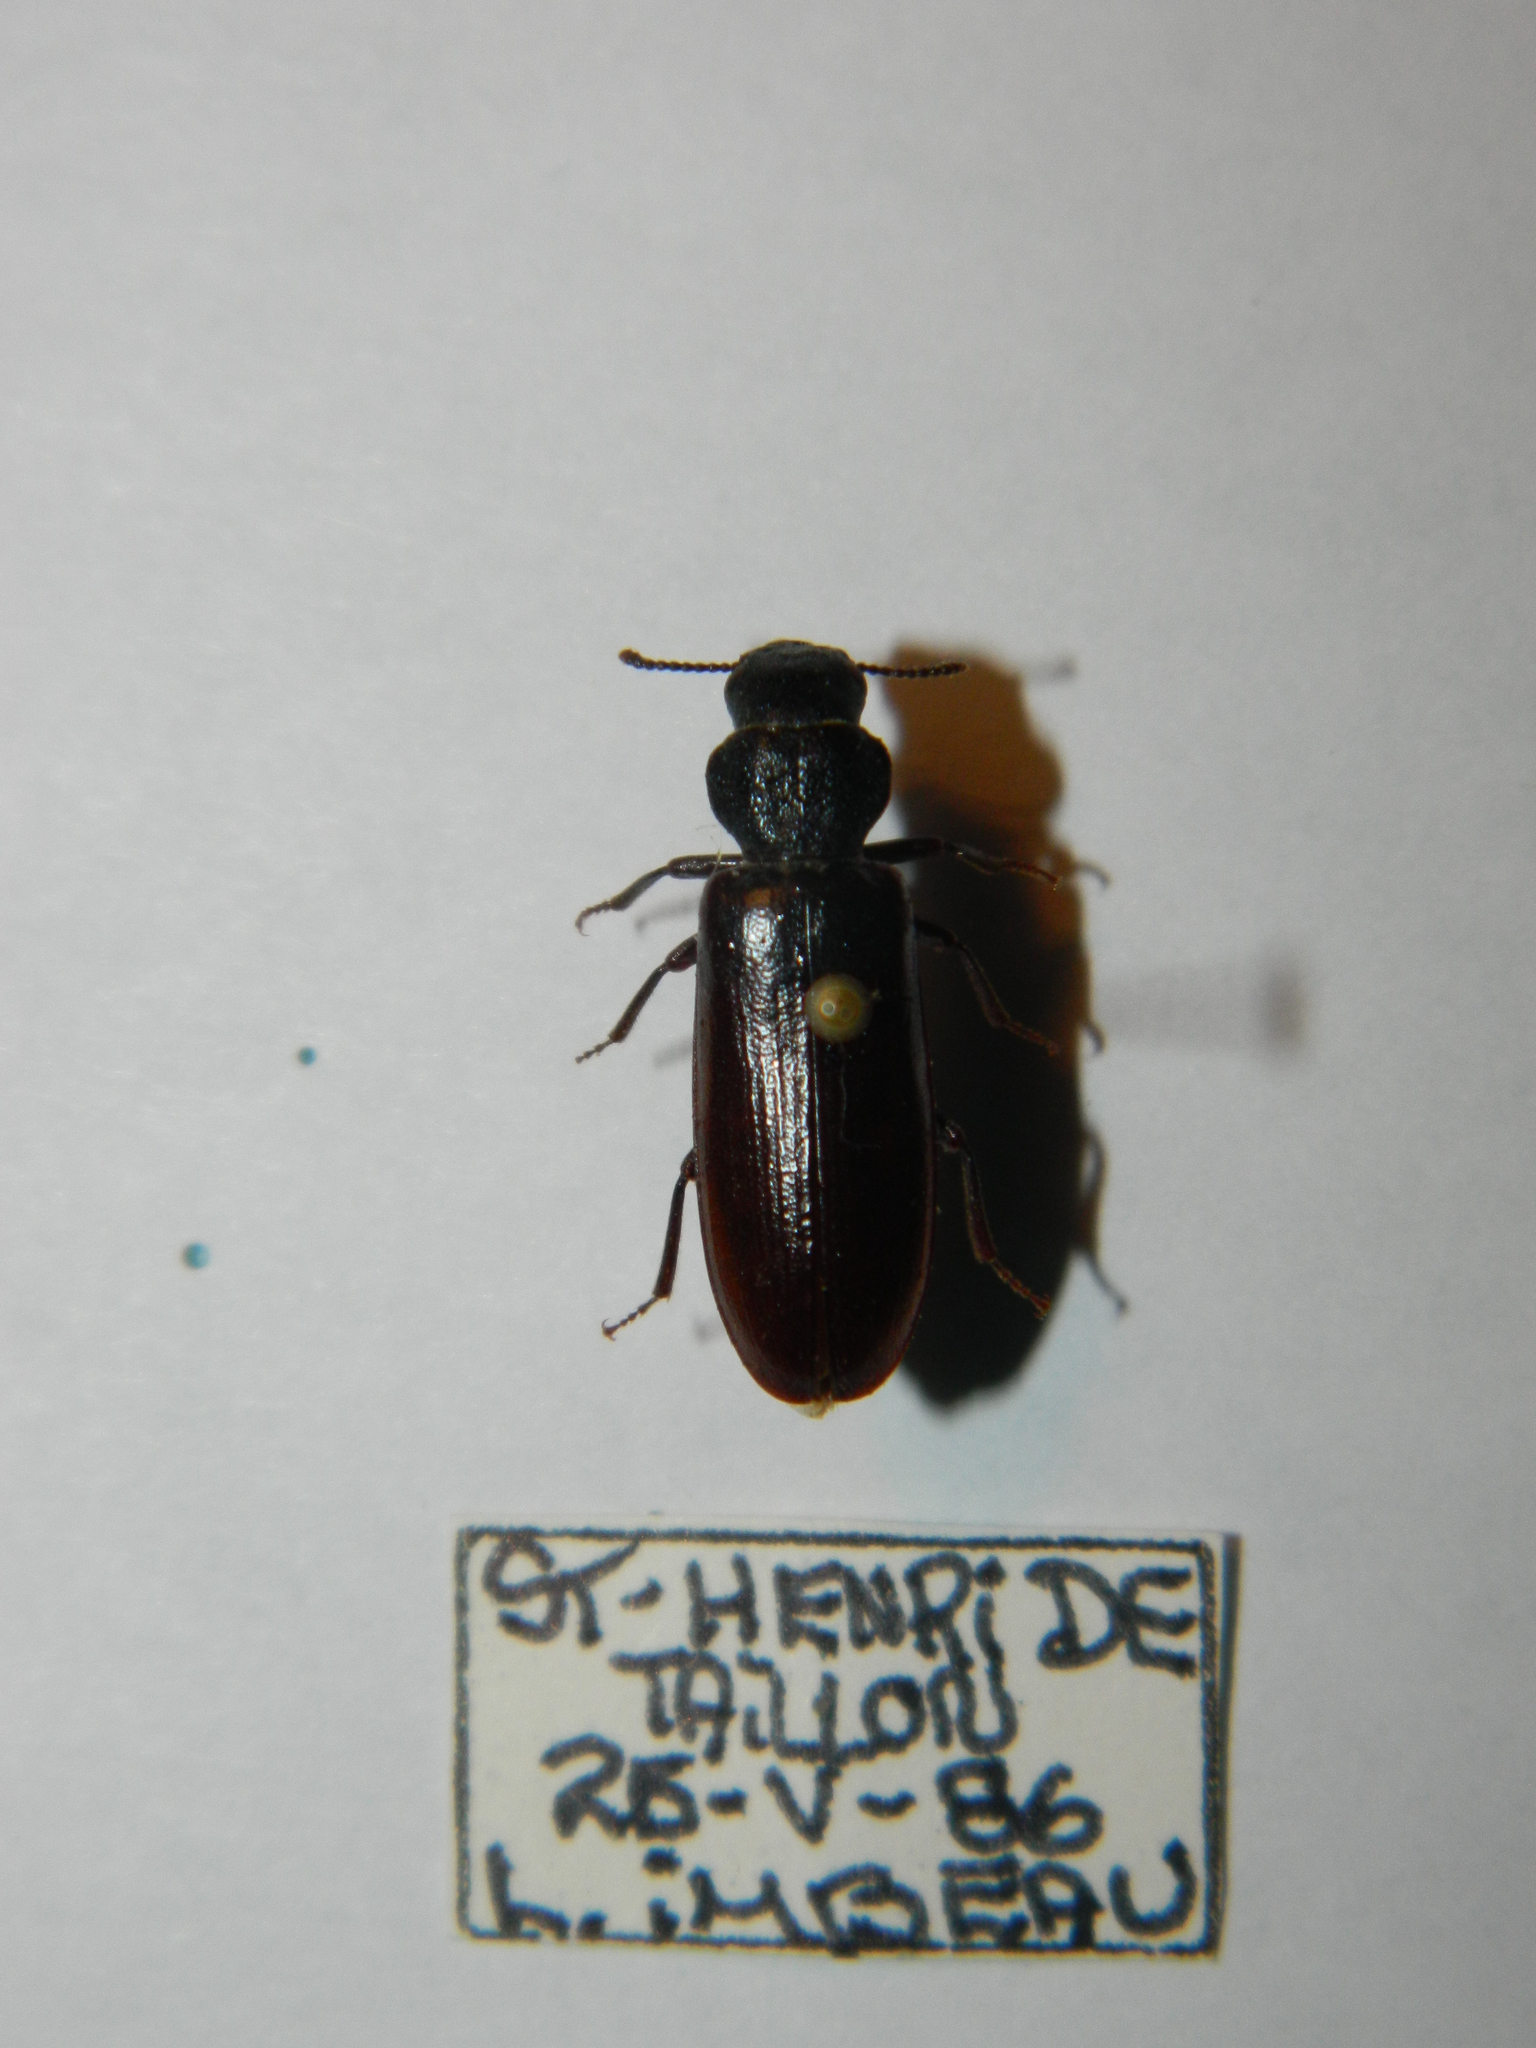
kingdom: Animalia
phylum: Arthropoda
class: Insecta
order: Coleoptera
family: Boridae
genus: Lecontia
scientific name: Lecontia discicollis
